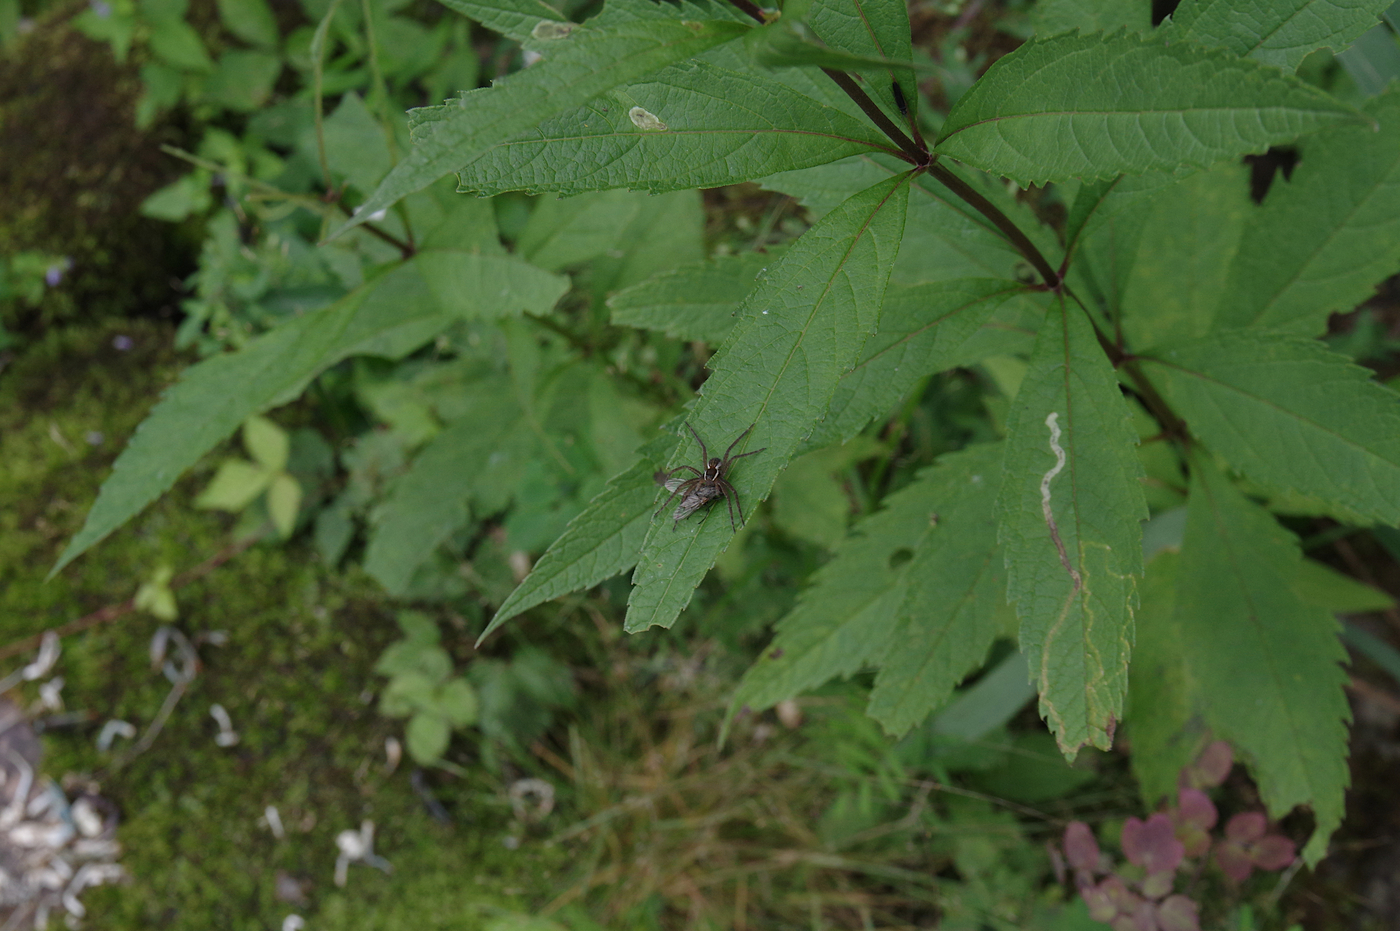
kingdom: Animalia
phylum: Arthropoda
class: Arachnida
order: Araneae
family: Pisauridae
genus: Dolomedes
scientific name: Dolomedes triton
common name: Six-spotted fishing spider
